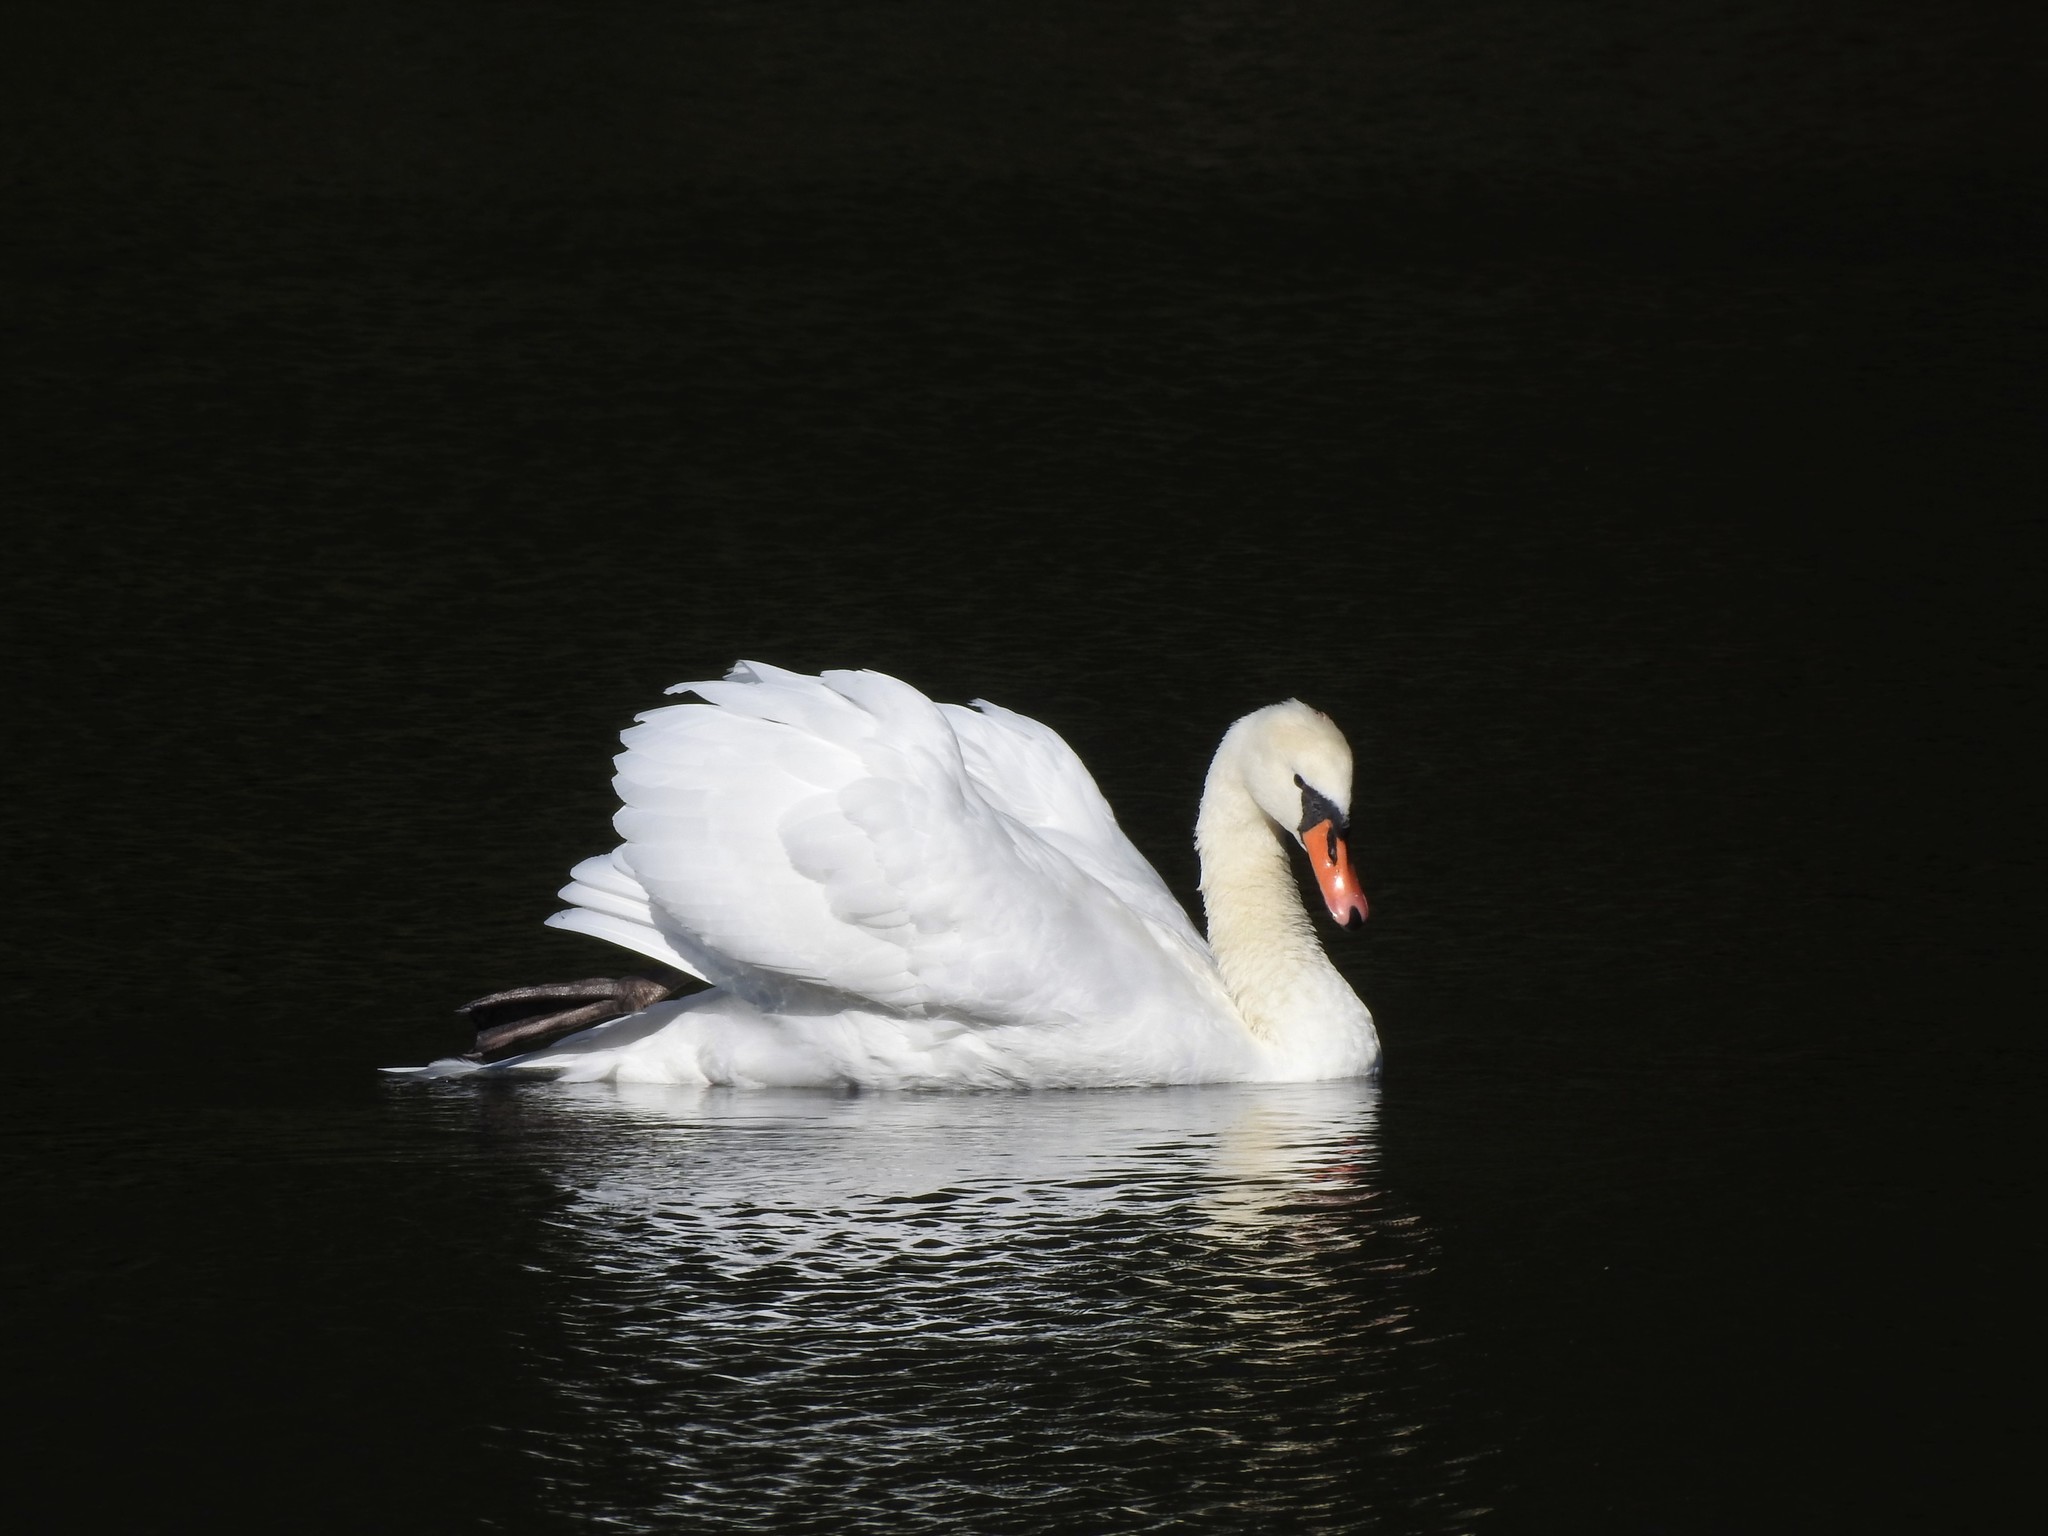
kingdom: Animalia
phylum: Chordata
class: Aves
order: Anseriformes
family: Anatidae
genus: Cygnus
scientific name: Cygnus olor
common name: Mute swan
